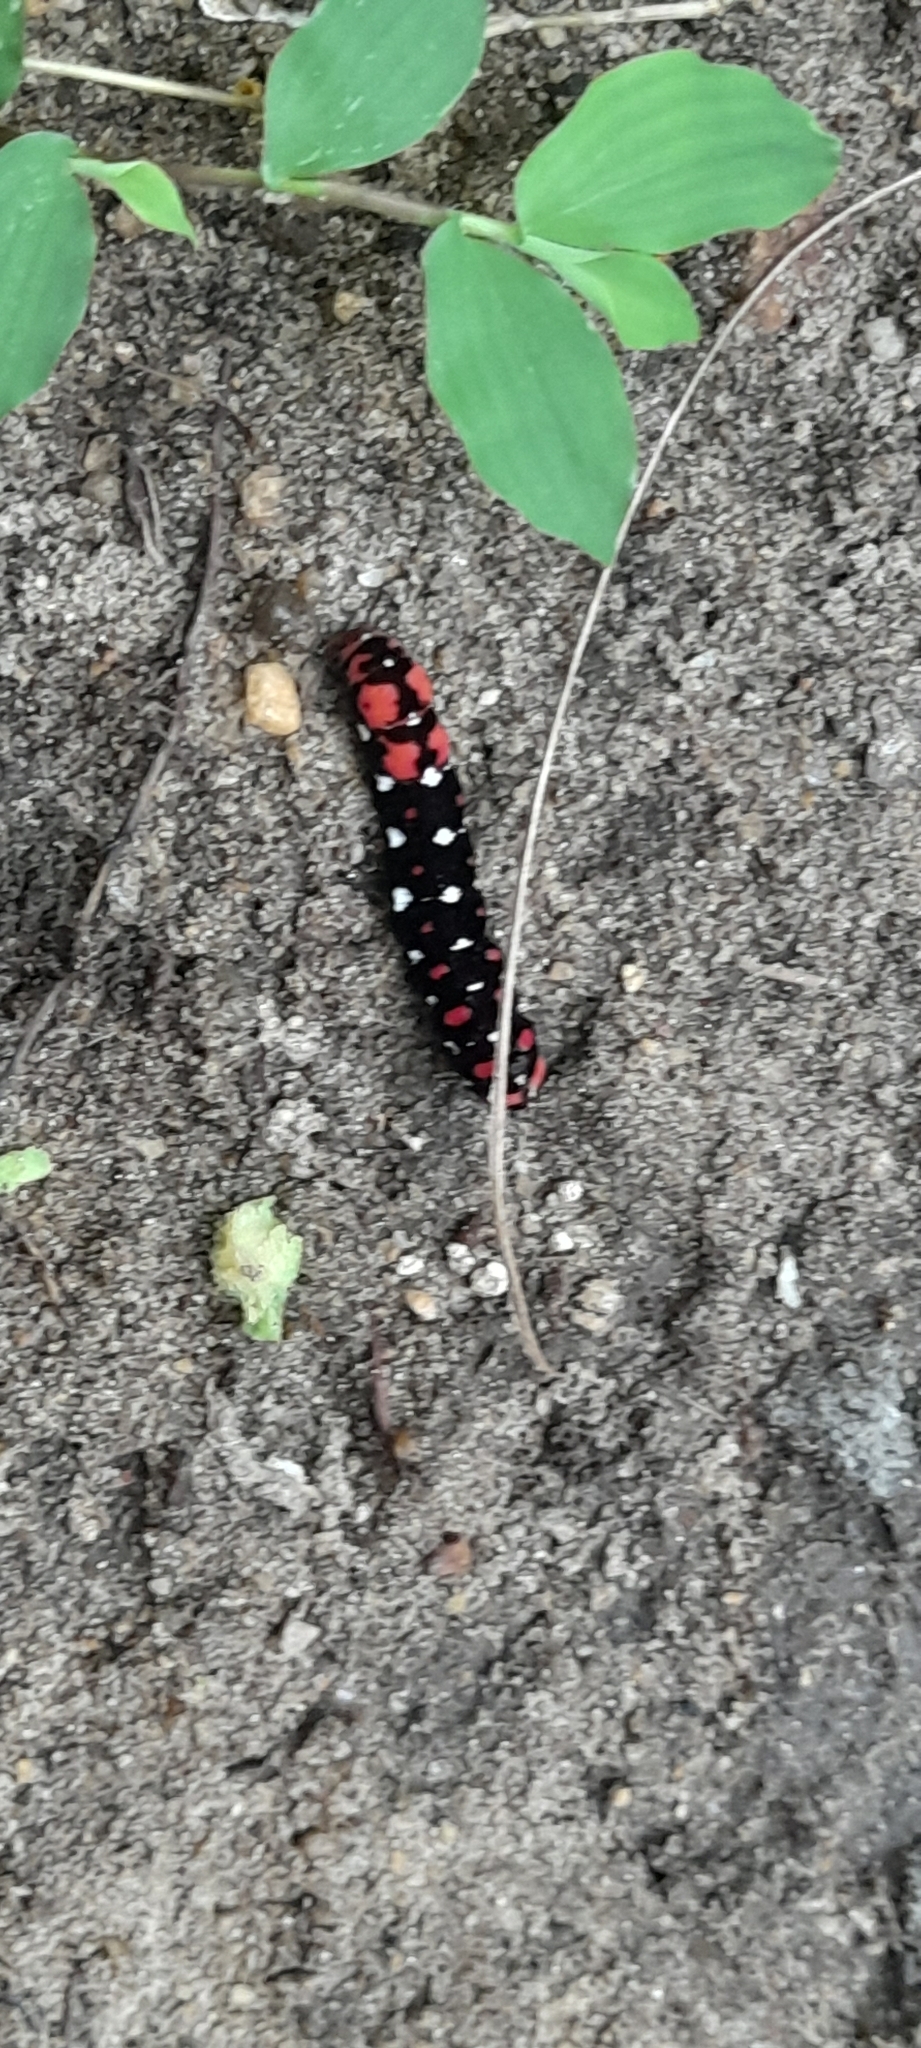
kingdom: Animalia
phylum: Arthropoda
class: Insecta
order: Lepidoptera
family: Noctuidae
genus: Polytela
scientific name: Polytela gloriosae
